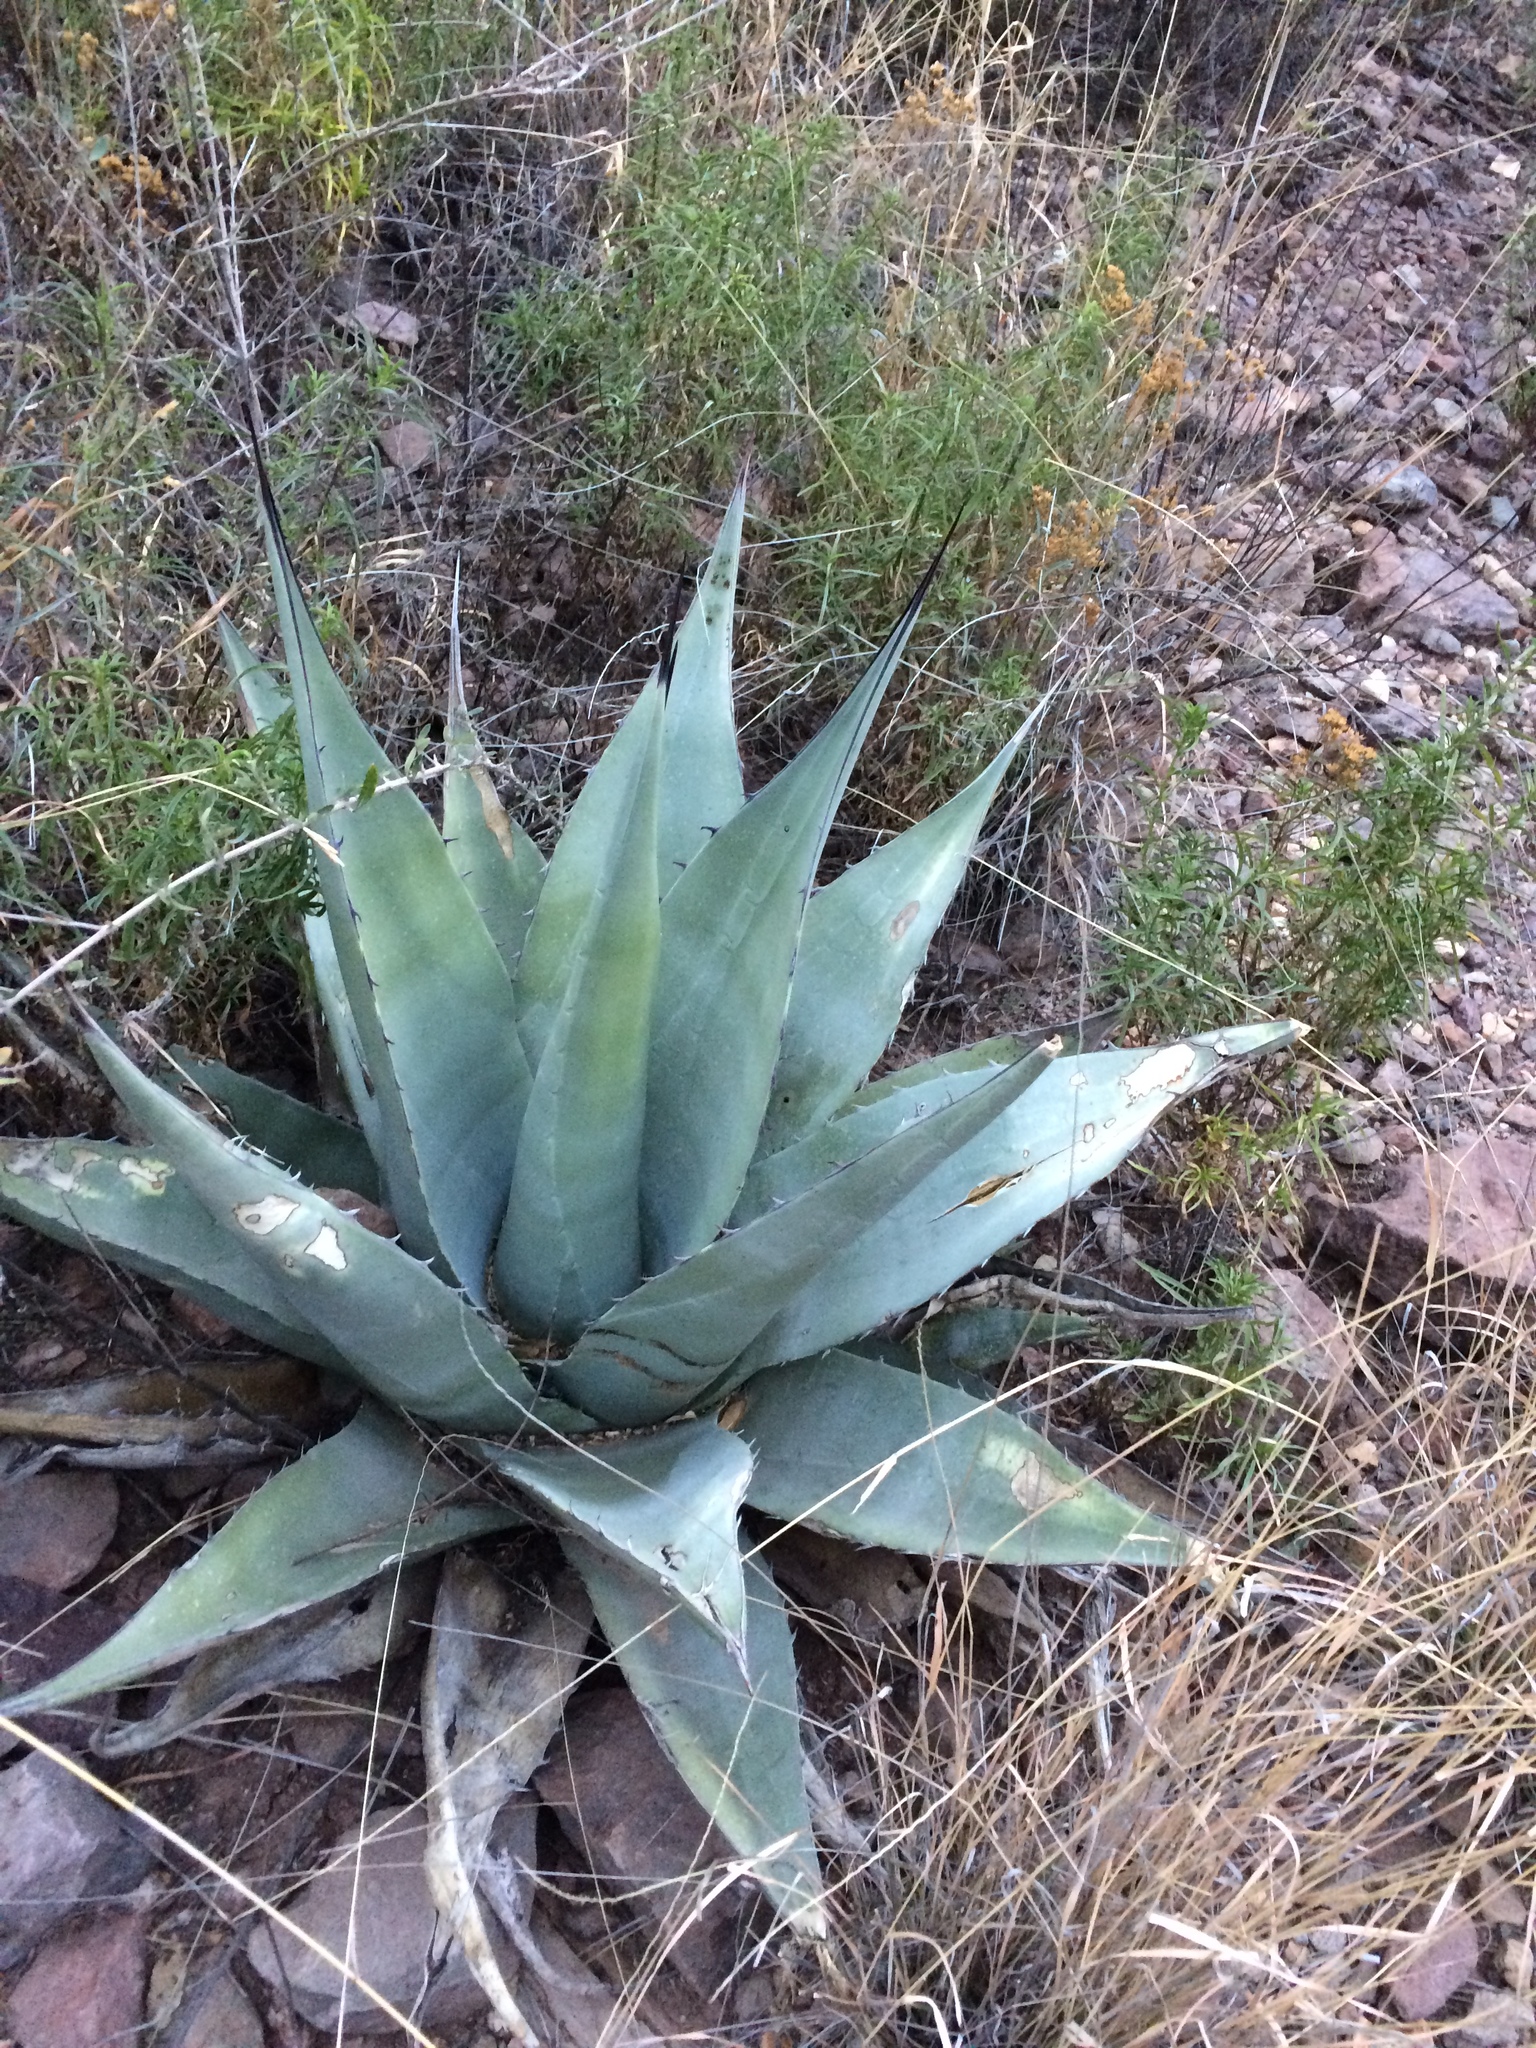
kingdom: Plantae
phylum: Tracheophyta
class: Liliopsida
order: Asparagales
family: Asparagaceae
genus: Agave
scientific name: Agave havardiana
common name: Havard agave
